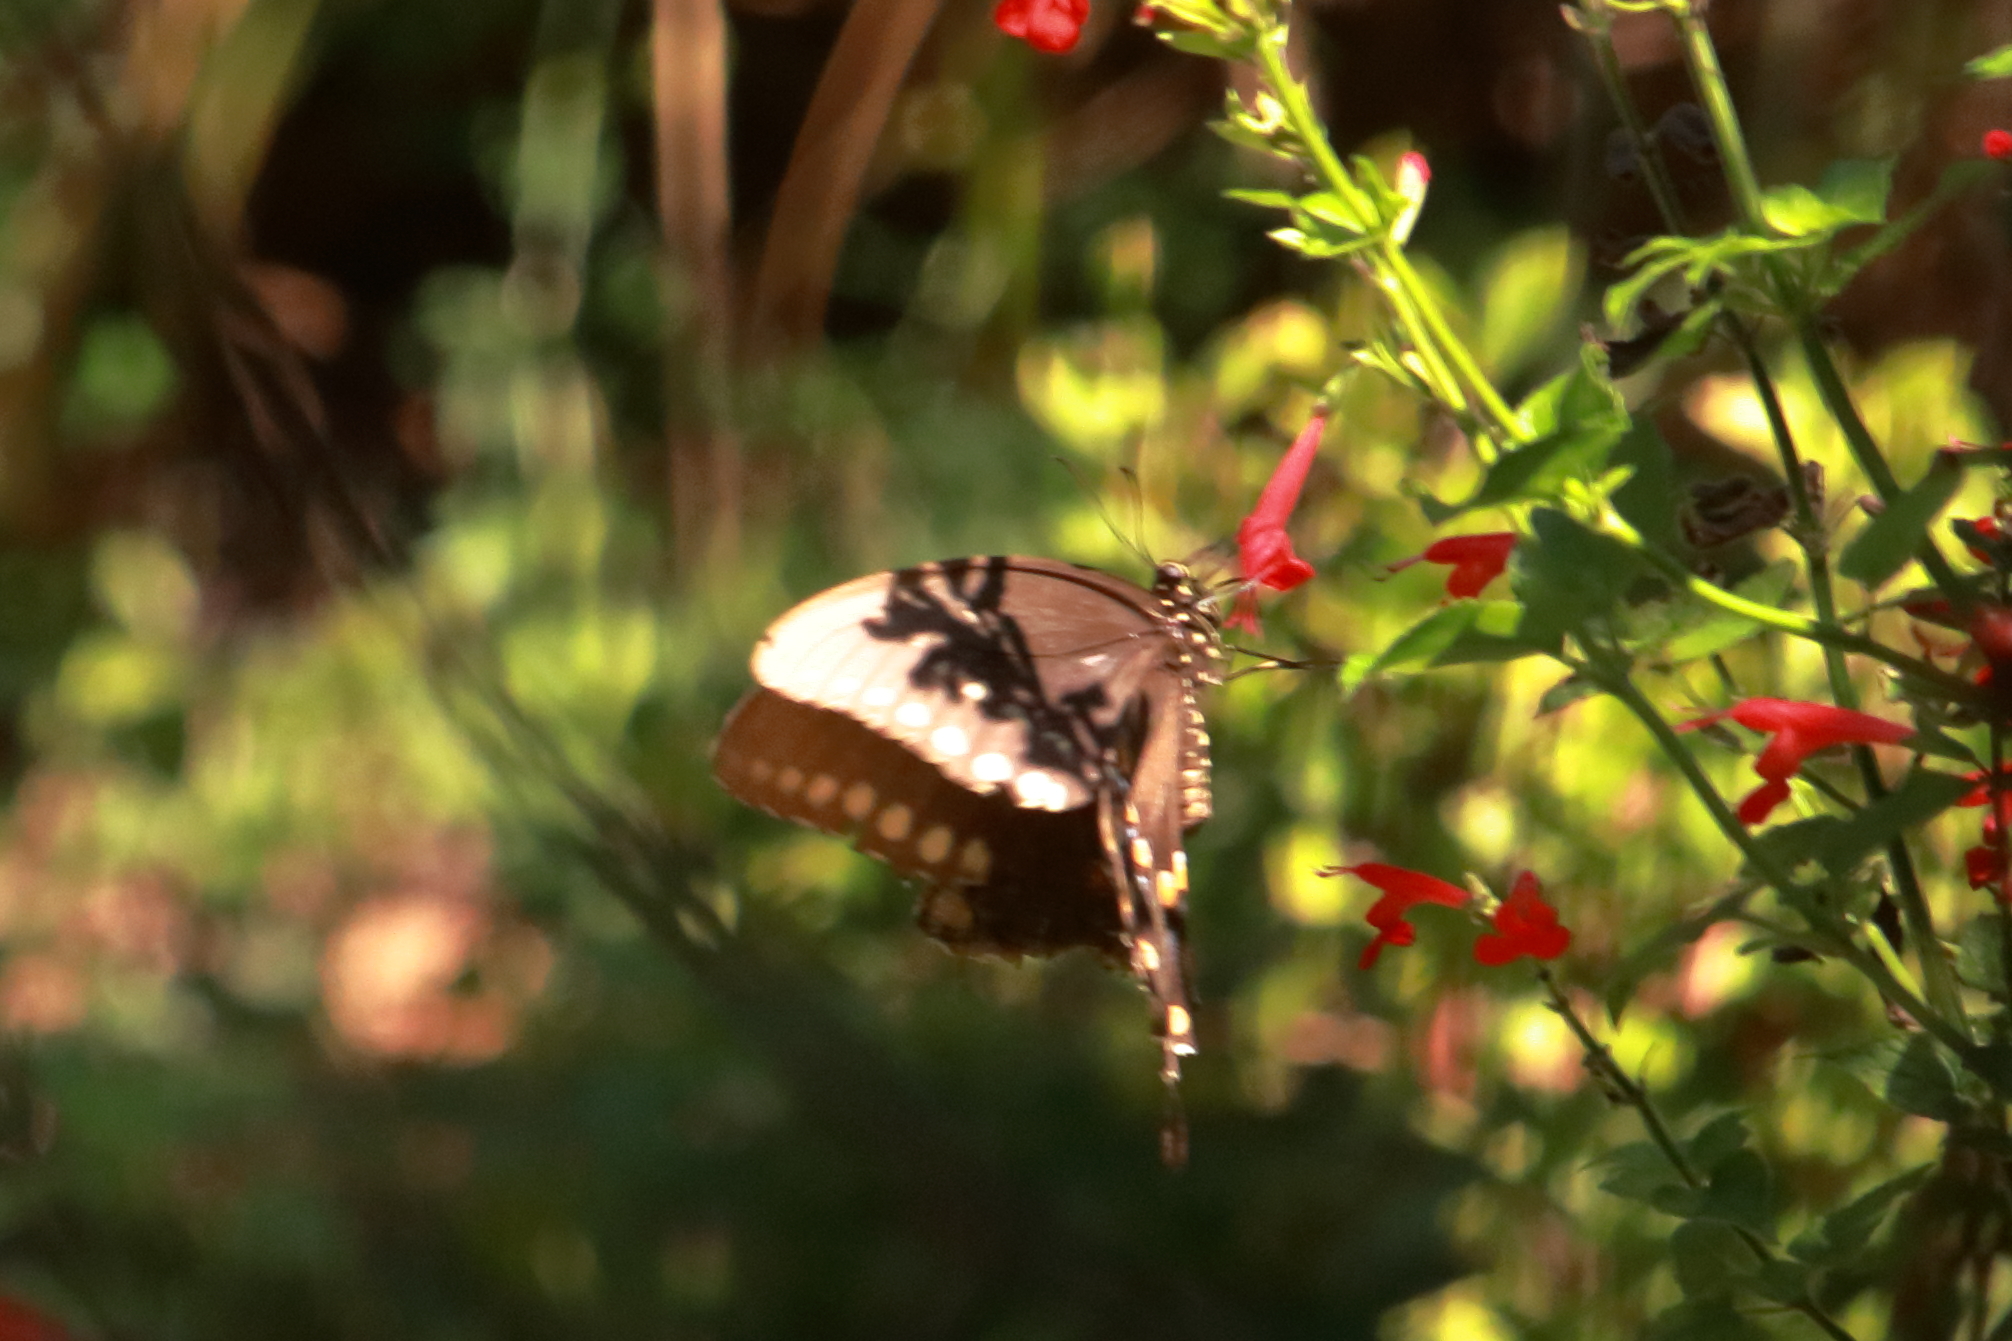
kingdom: Animalia
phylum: Arthropoda
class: Insecta
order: Lepidoptera
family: Papilionidae
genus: Papilio
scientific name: Papilio troilus
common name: Spicebush swallowtail
